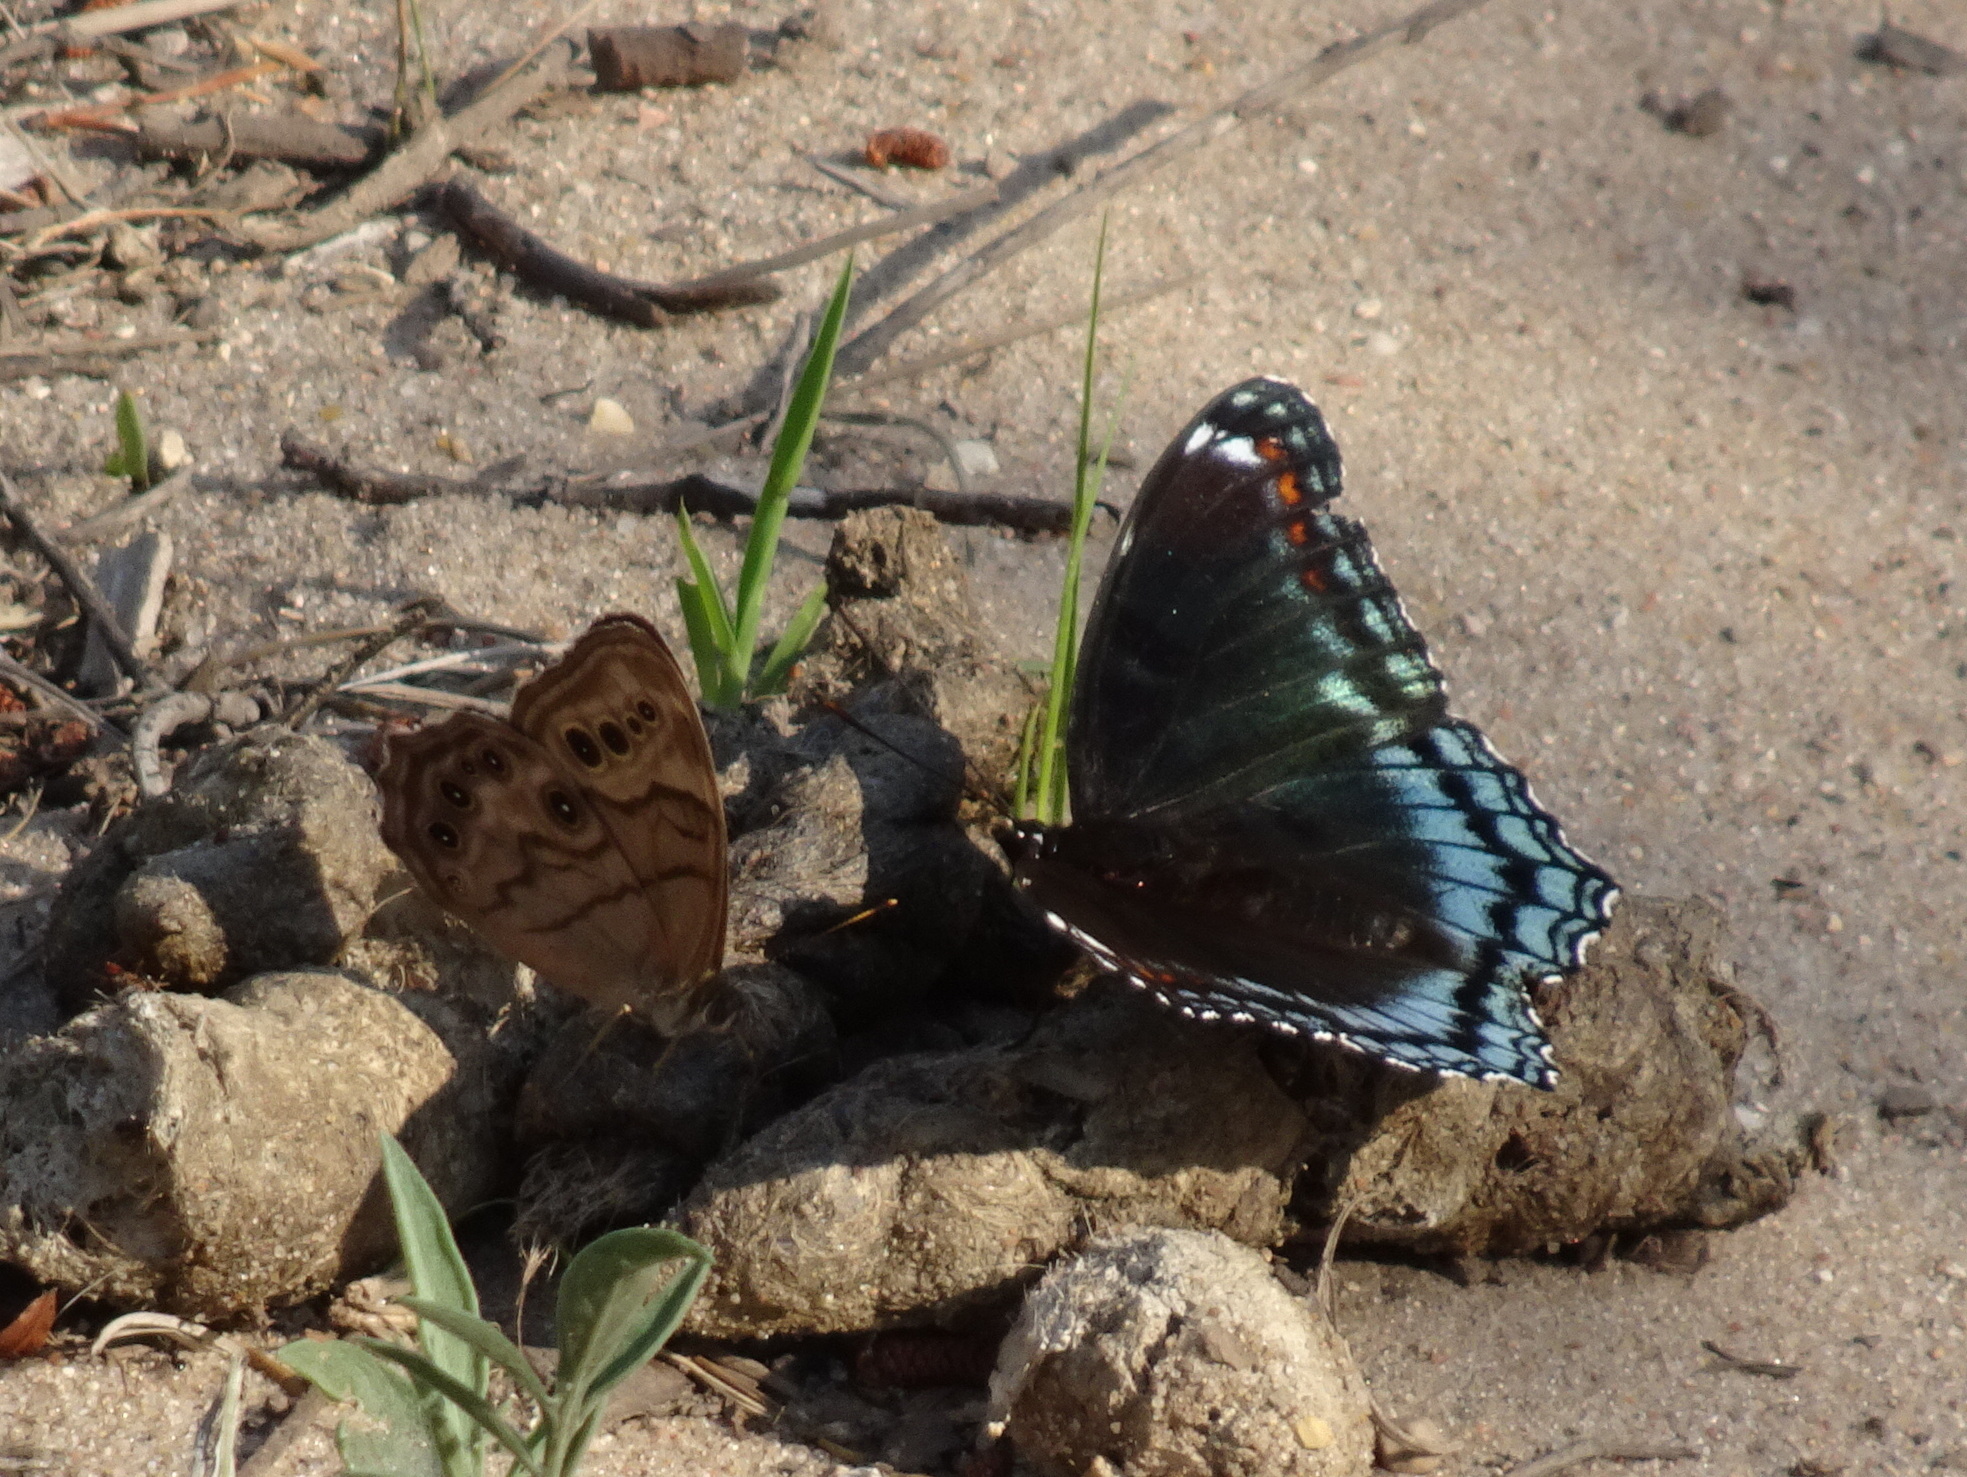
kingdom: Animalia
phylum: Arthropoda
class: Insecta
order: Lepidoptera
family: Nymphalidae
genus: Limenitis
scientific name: Limenitis arthemis
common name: Red-spotted admiral
